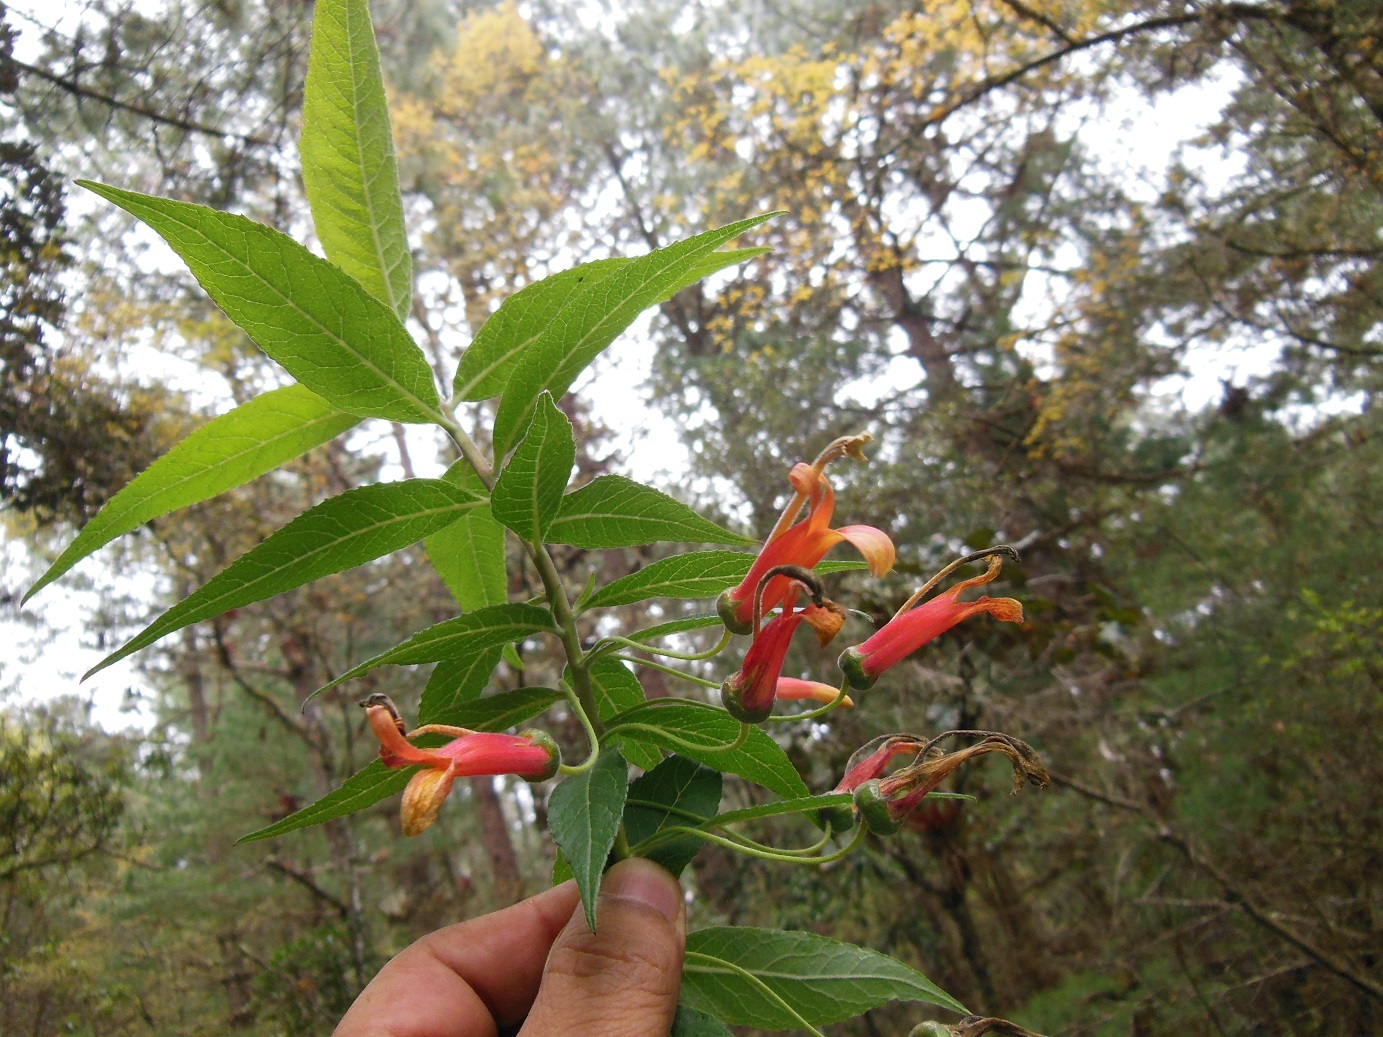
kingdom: Plantae
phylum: Tracheophyta
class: Magnoliopsida
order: Asterales
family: Campanulaceae
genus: Lobelia
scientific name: Lobelia laxiflora
